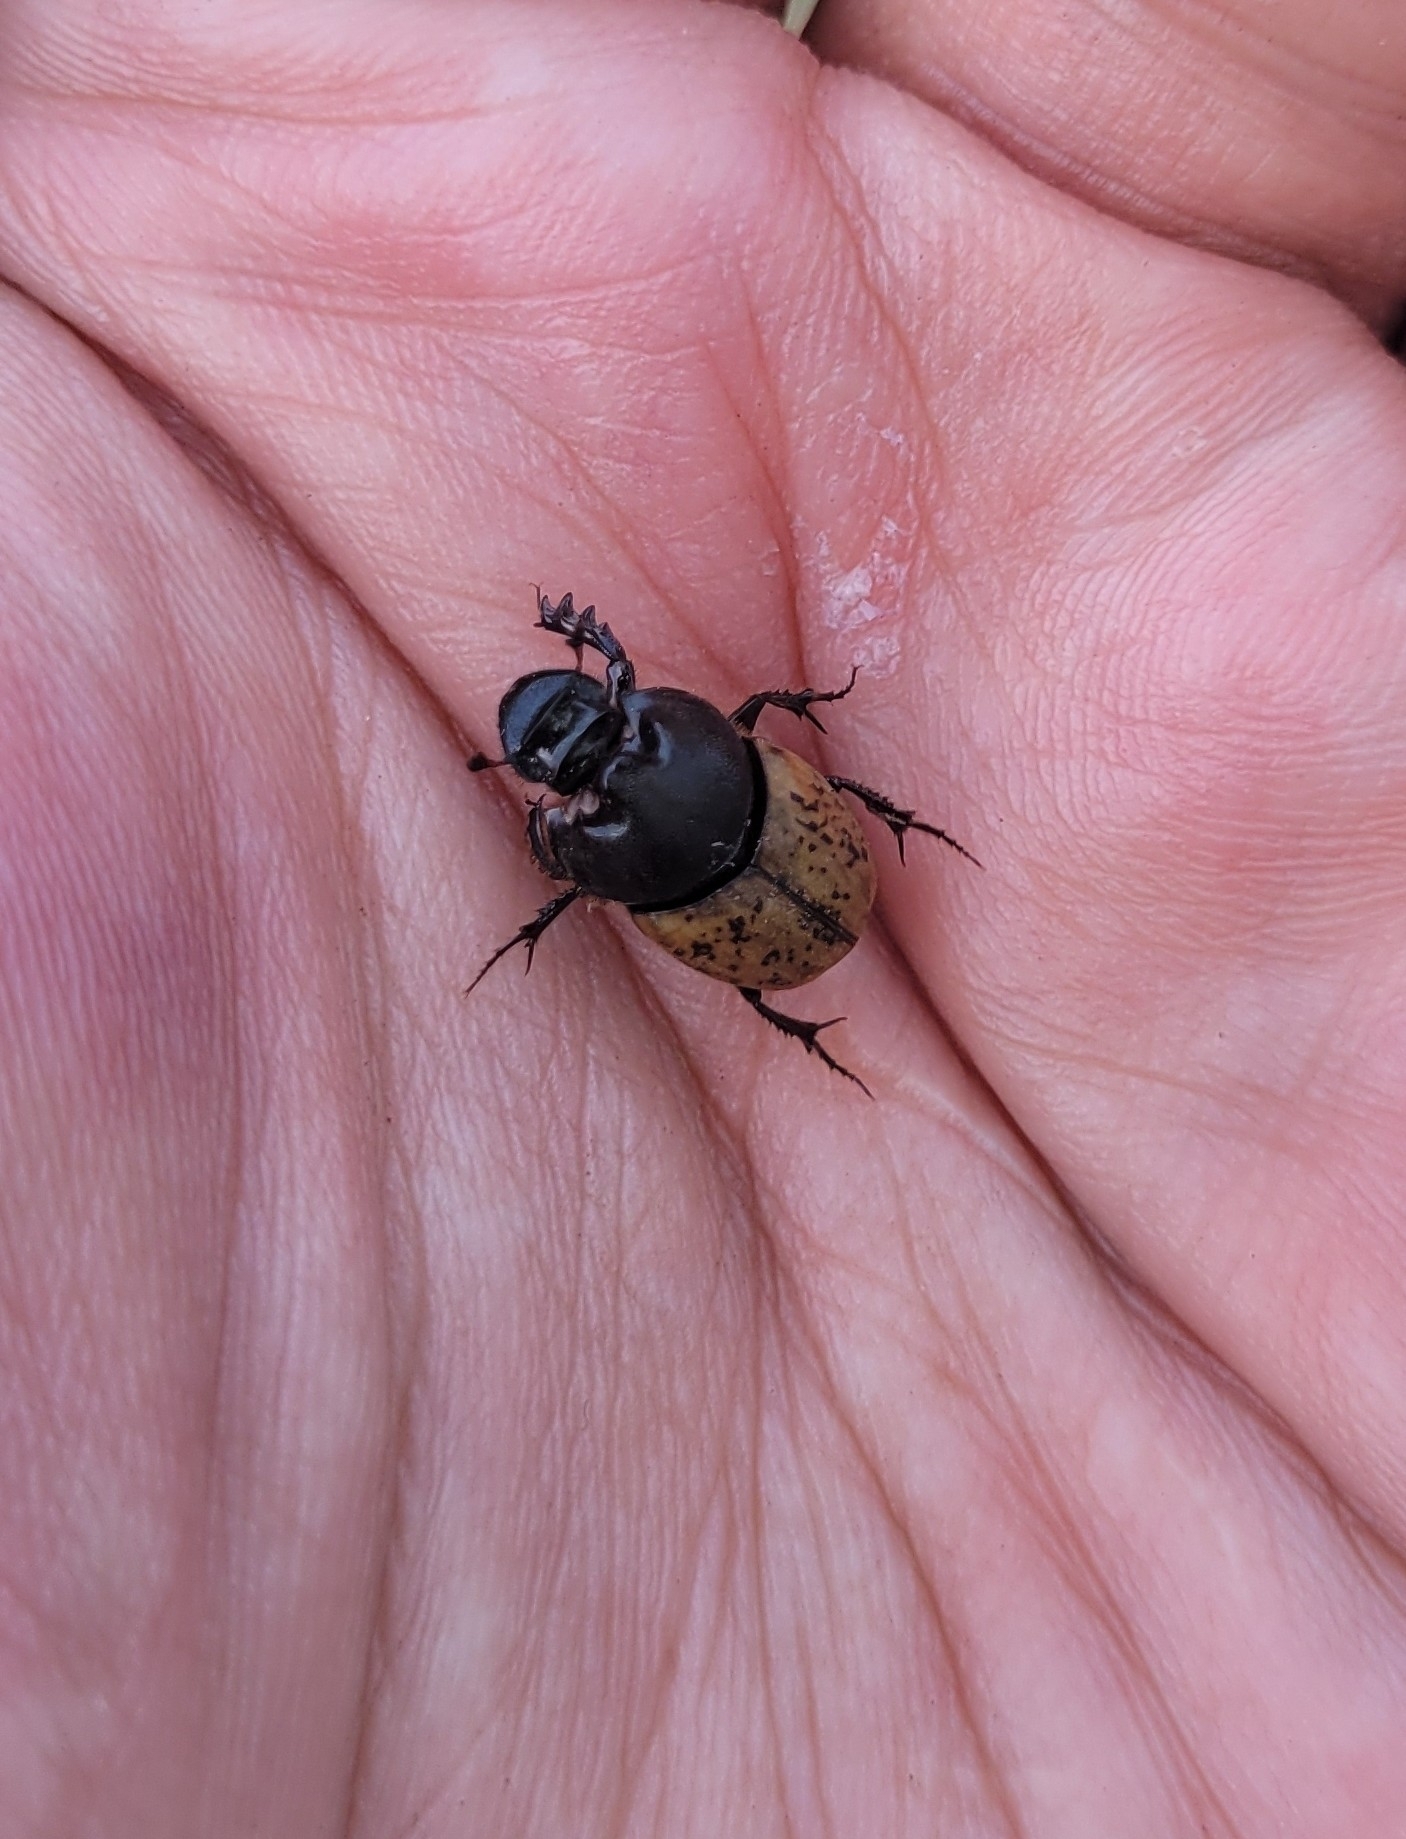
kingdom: Animalia
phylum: Arthropoda
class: Insecta
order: Coleoptera
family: Scarabaeidae
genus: Onthophagus
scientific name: Onthophagus gibbulus
